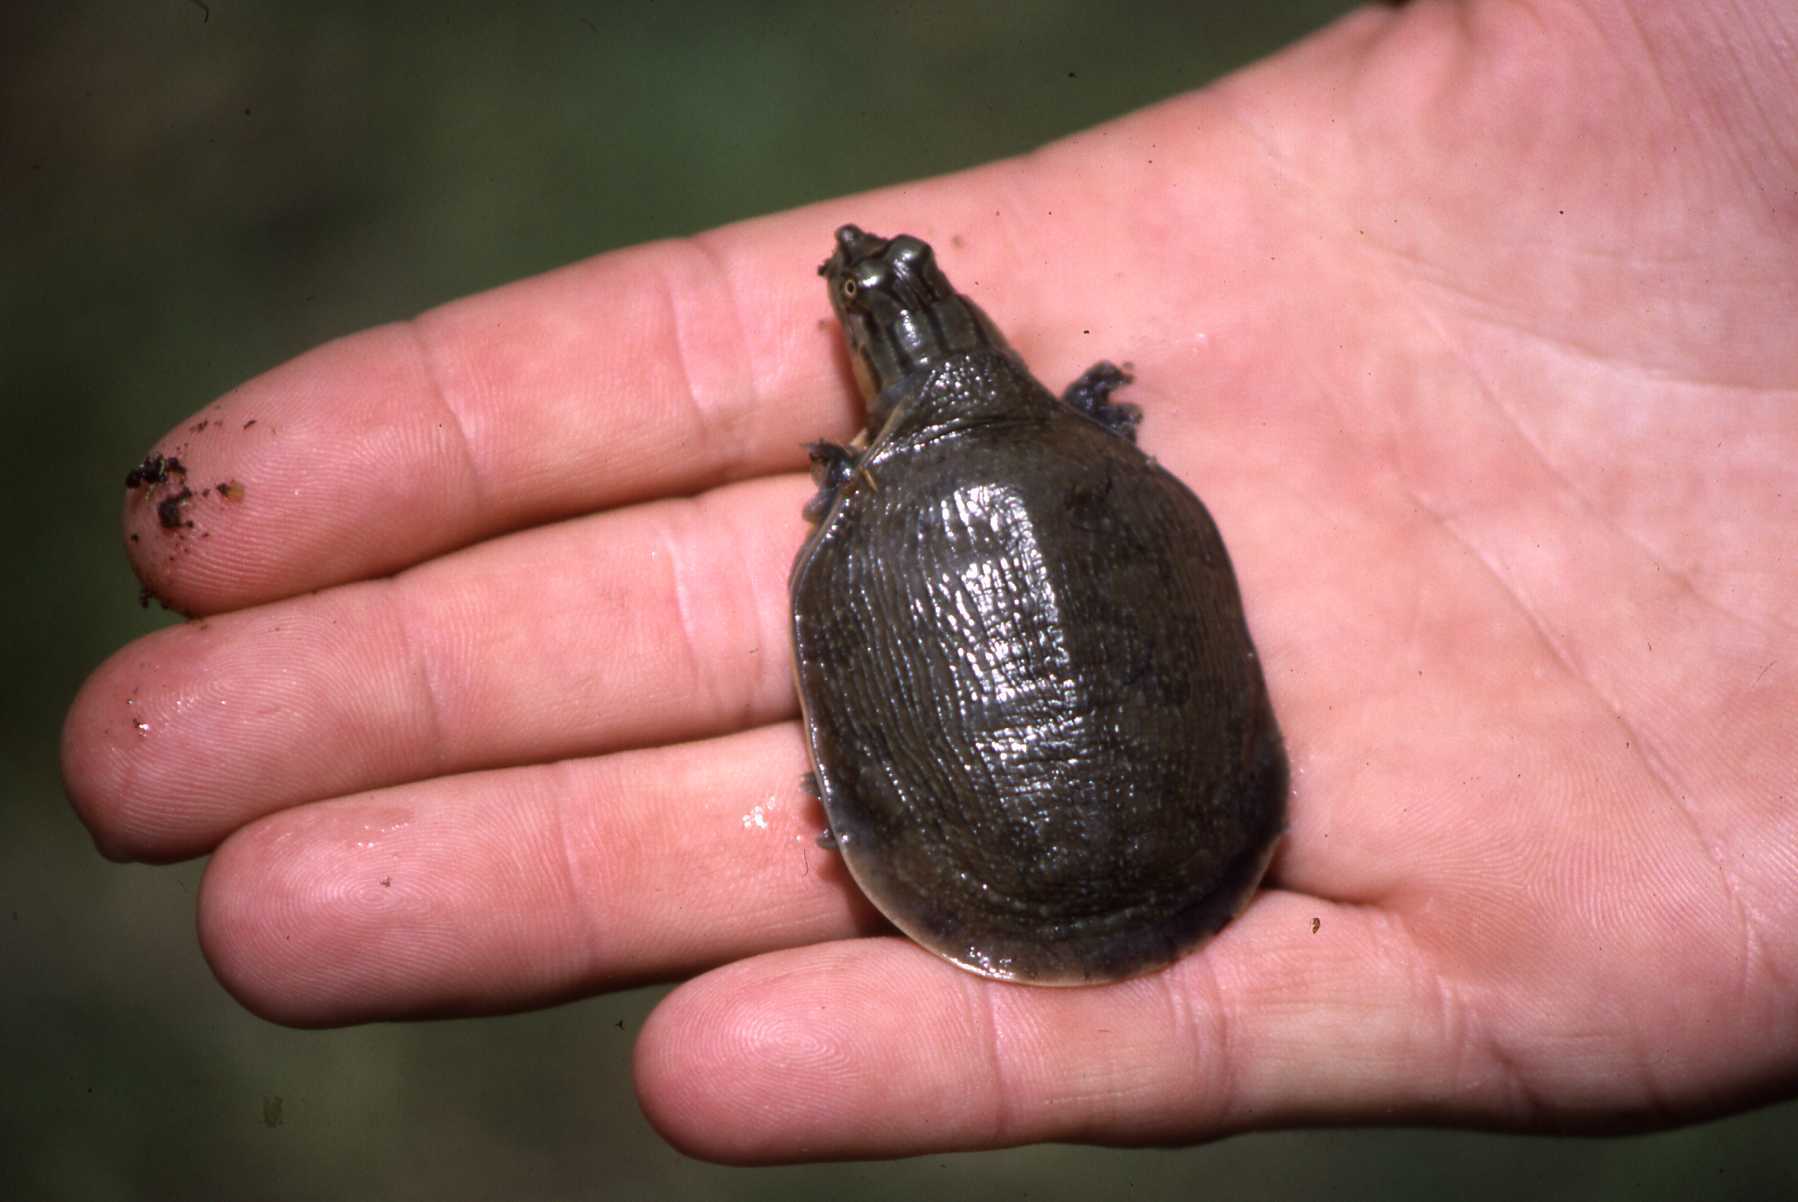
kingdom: Animalia
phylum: Chordata
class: Testudines
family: Trionychidae
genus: Cycloderma
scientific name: Cycloderma frenatum
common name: Zambezi soft-shelled turtle
